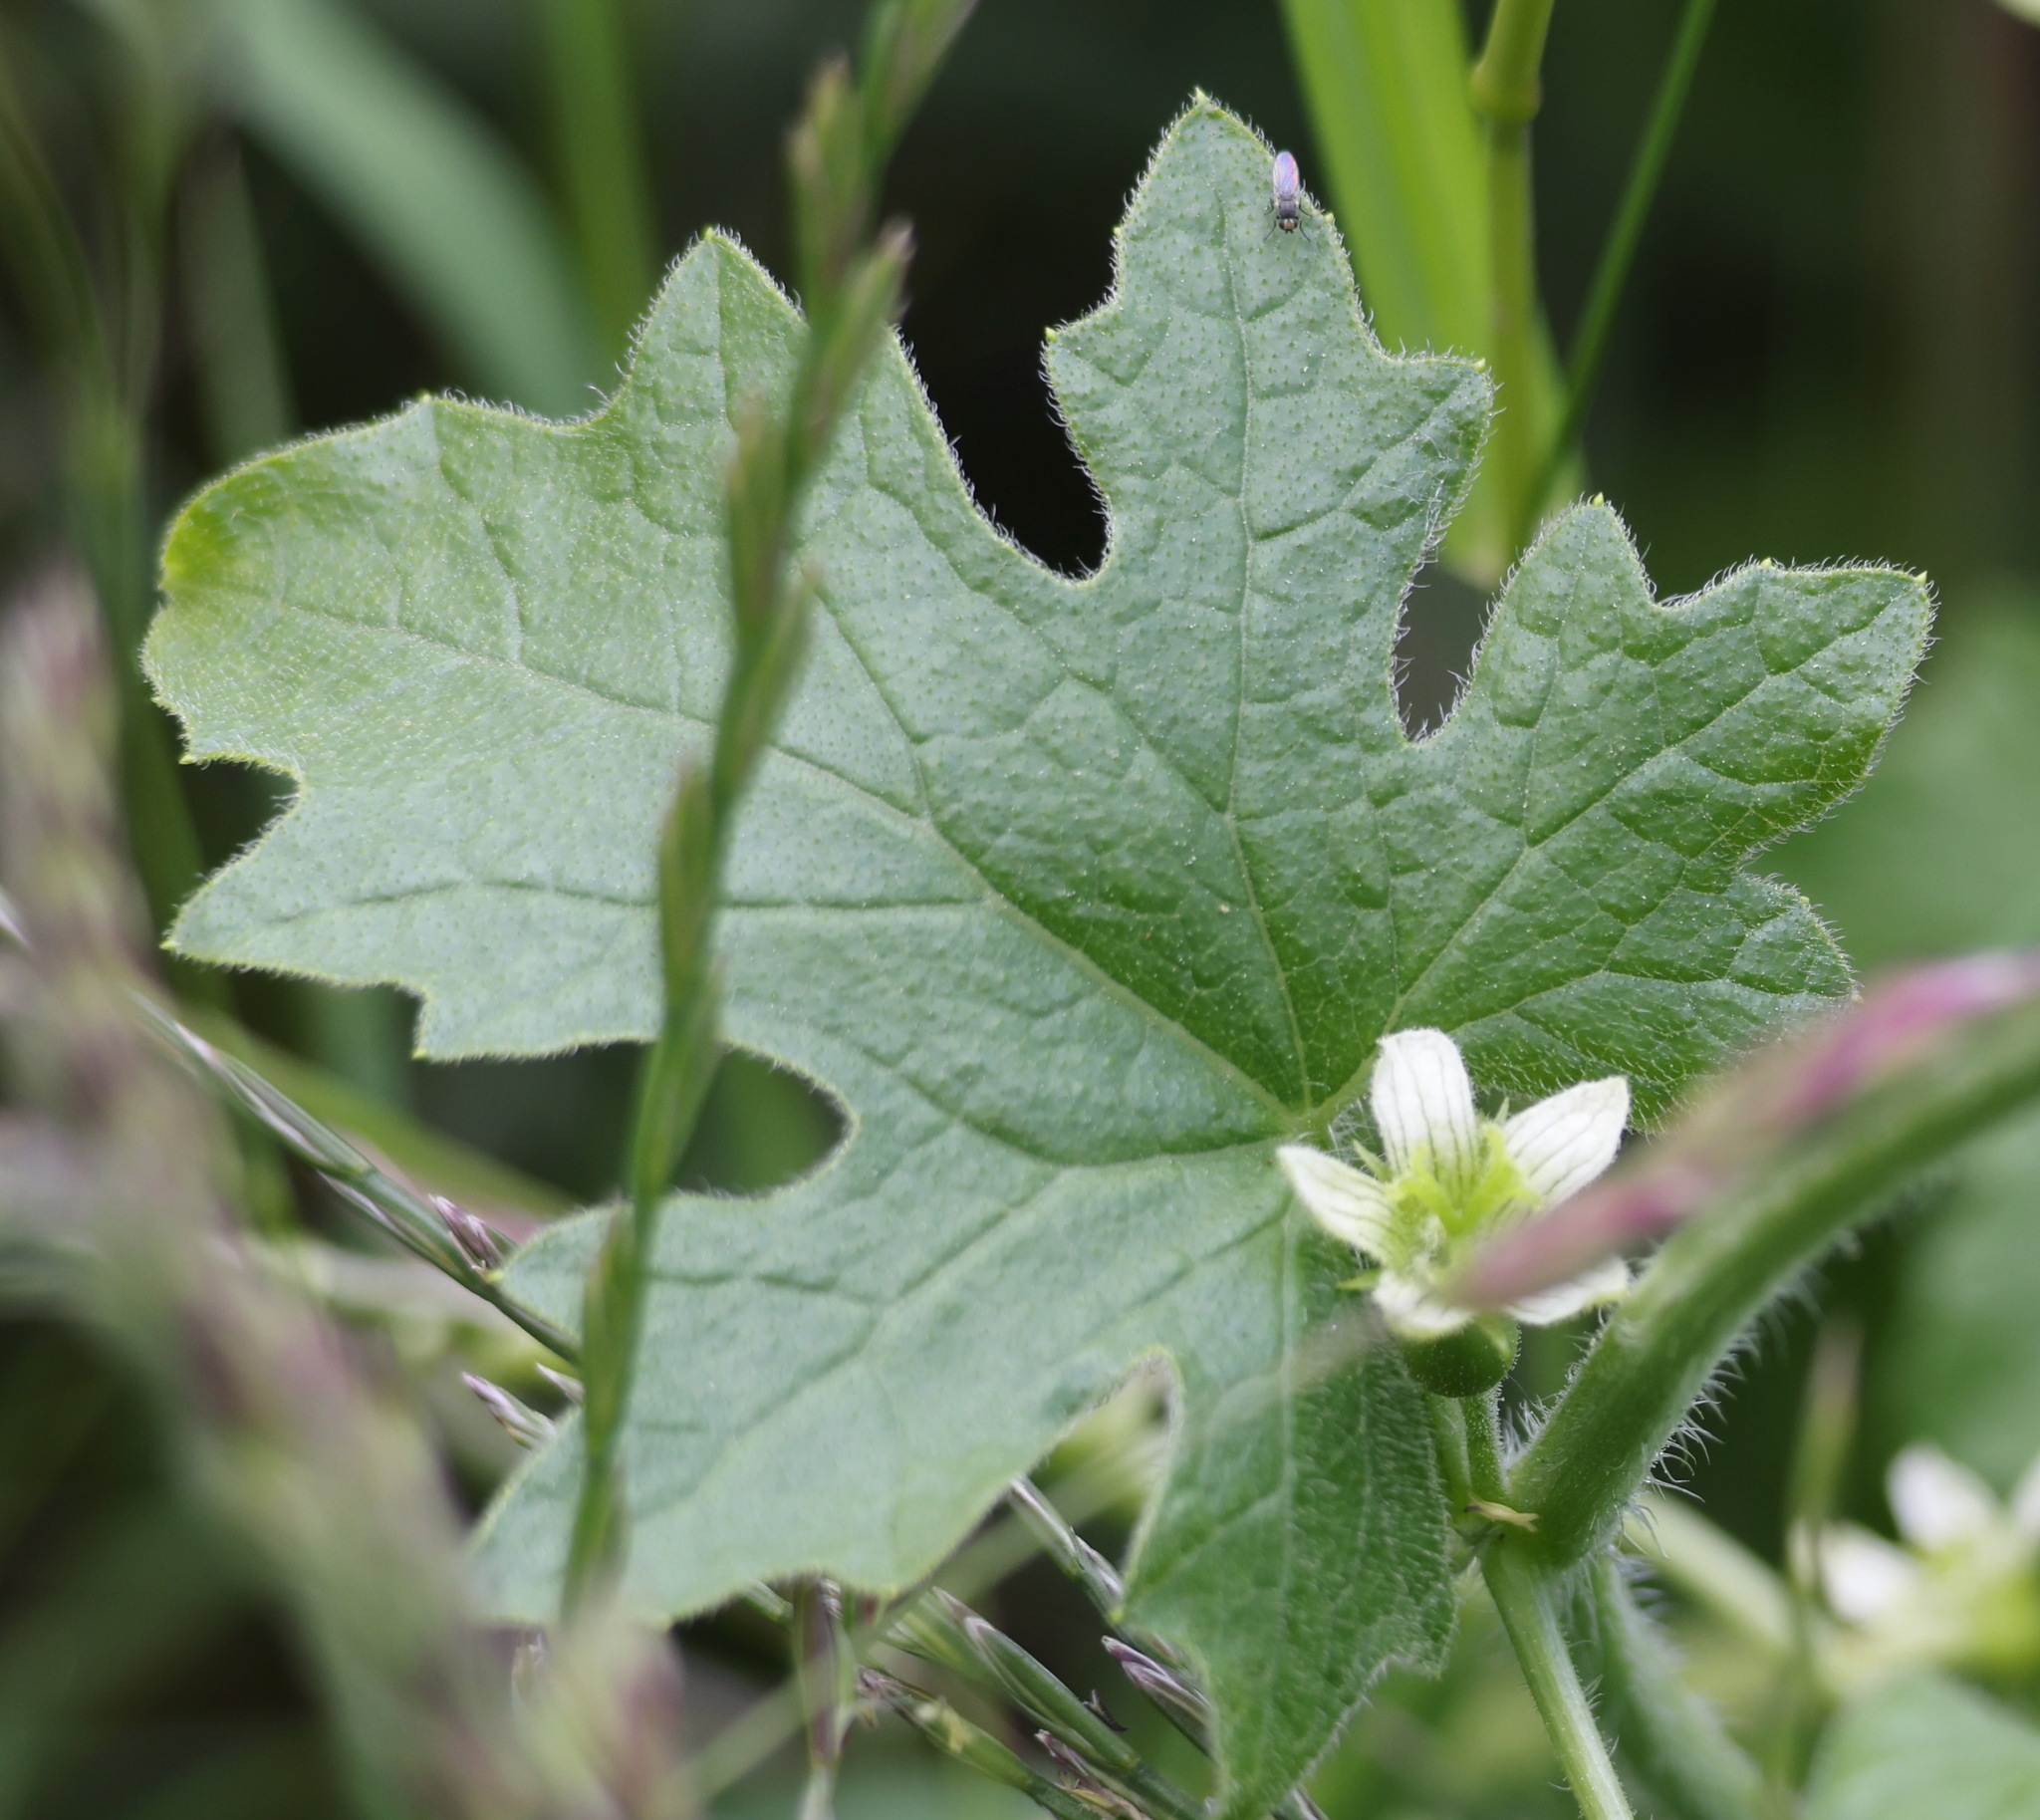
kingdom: Plantae
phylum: Tracheophyta
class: Magnoliopsida
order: Cucurbitales
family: Cucurbitaceae
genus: Bryonia
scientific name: Bryonia cretica
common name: Cretan bryony
